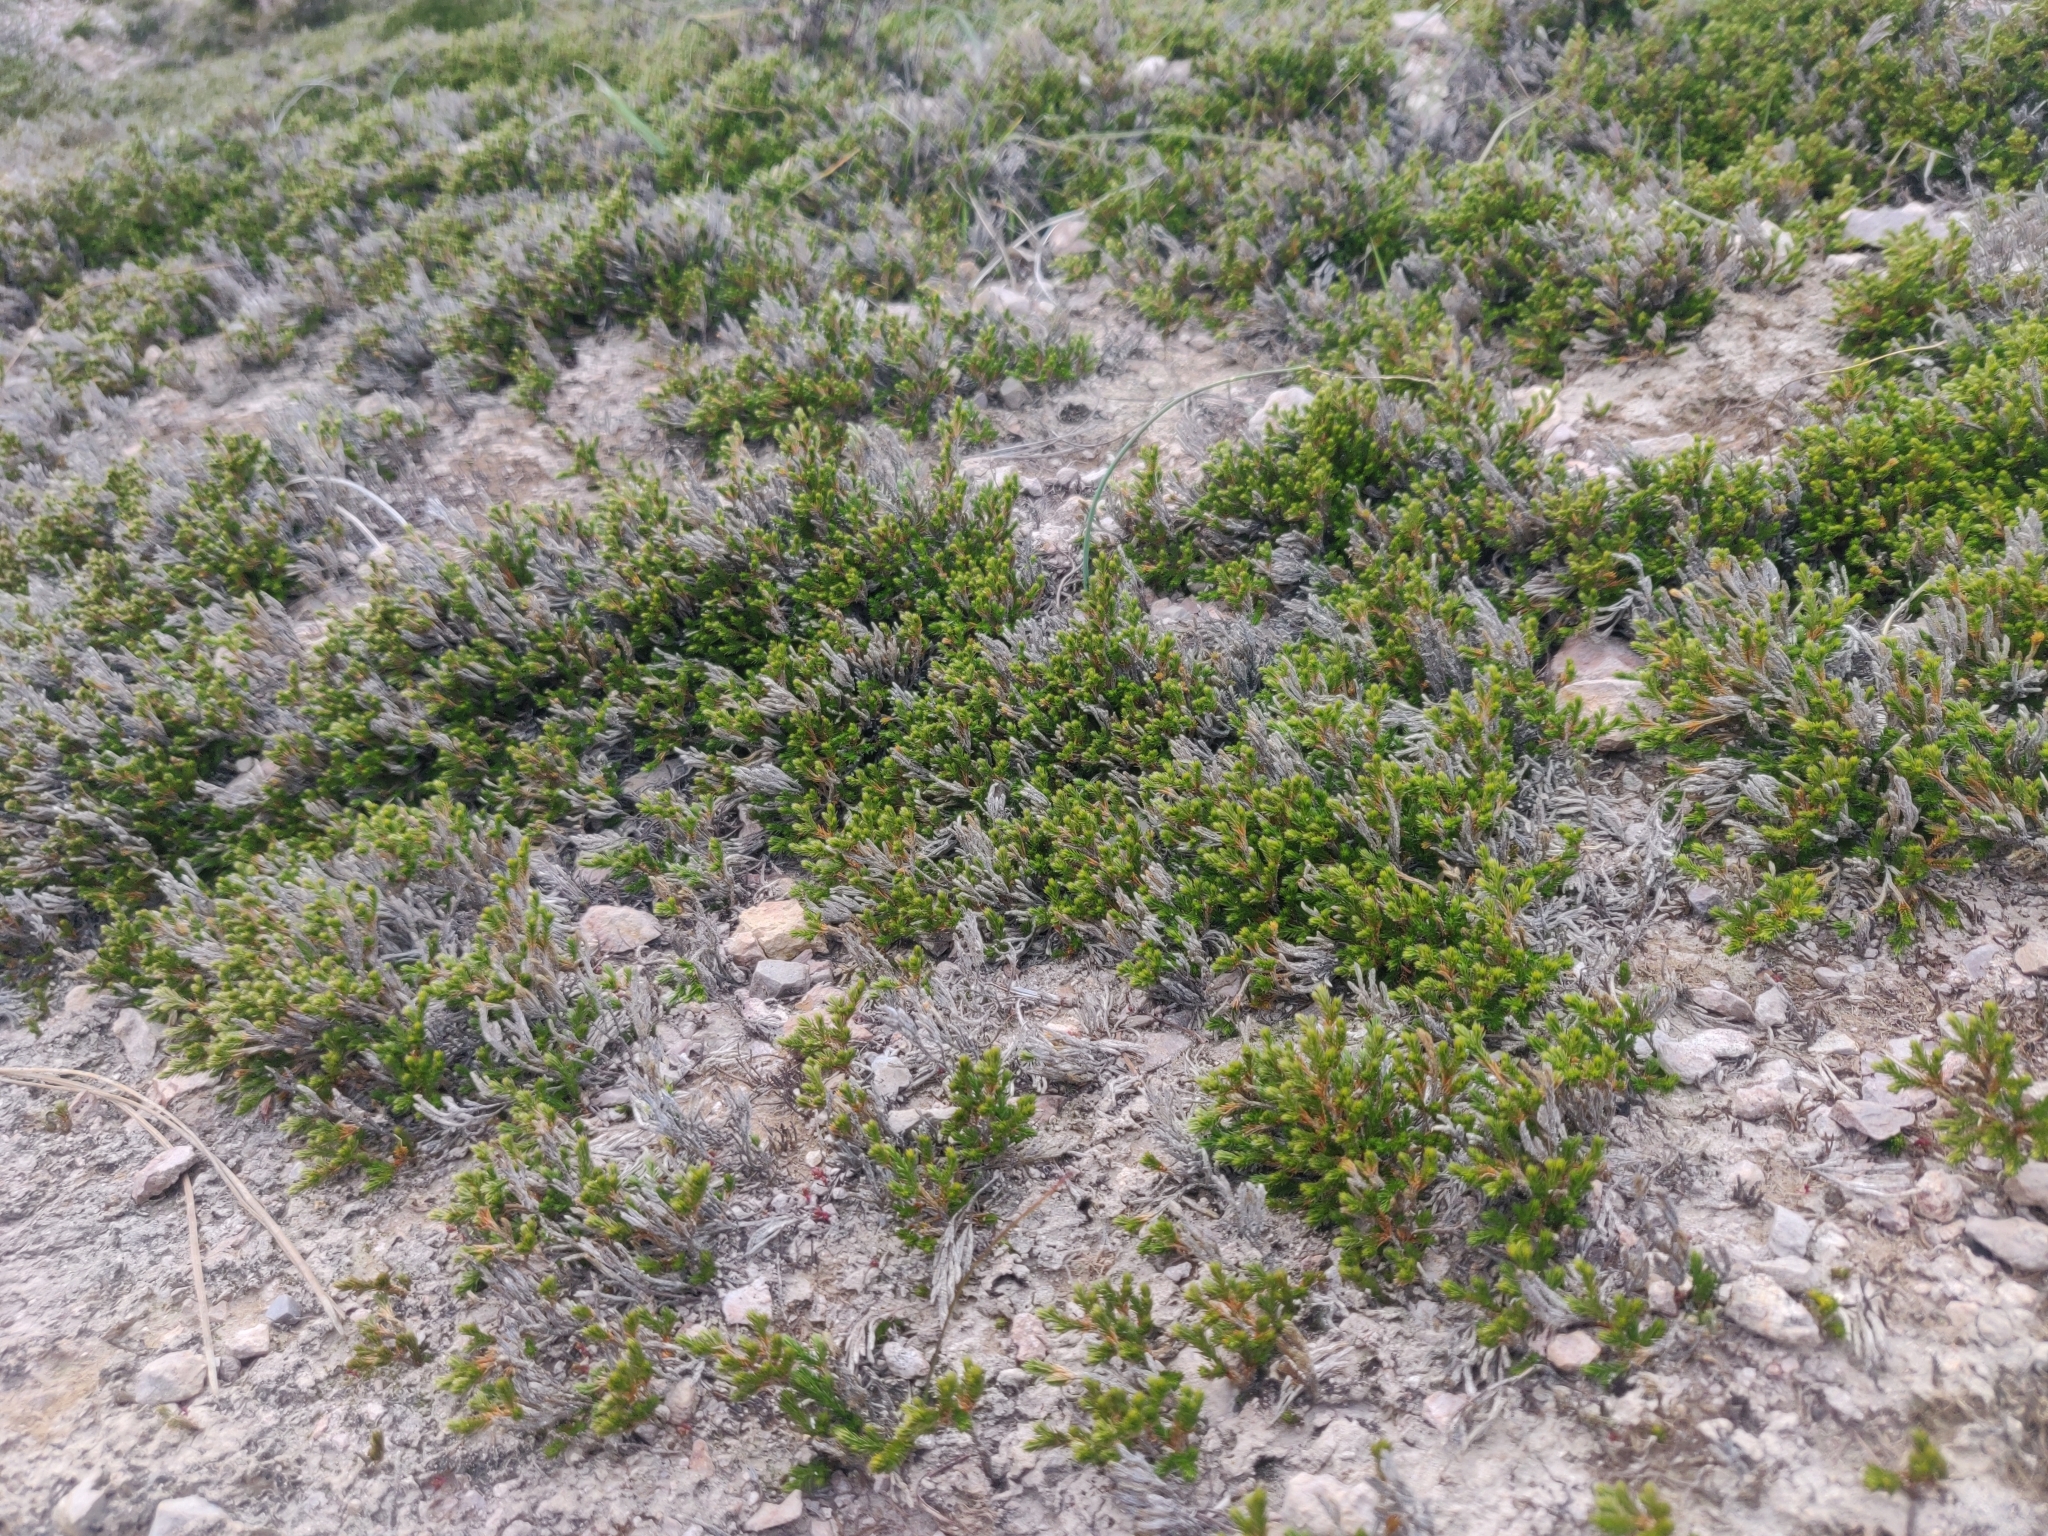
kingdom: Plantae
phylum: Tracheophyta
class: Lycopodiopsida
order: Selaginellales
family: Selaginellaceae
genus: Selaginella
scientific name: Selaginella bigelovii
